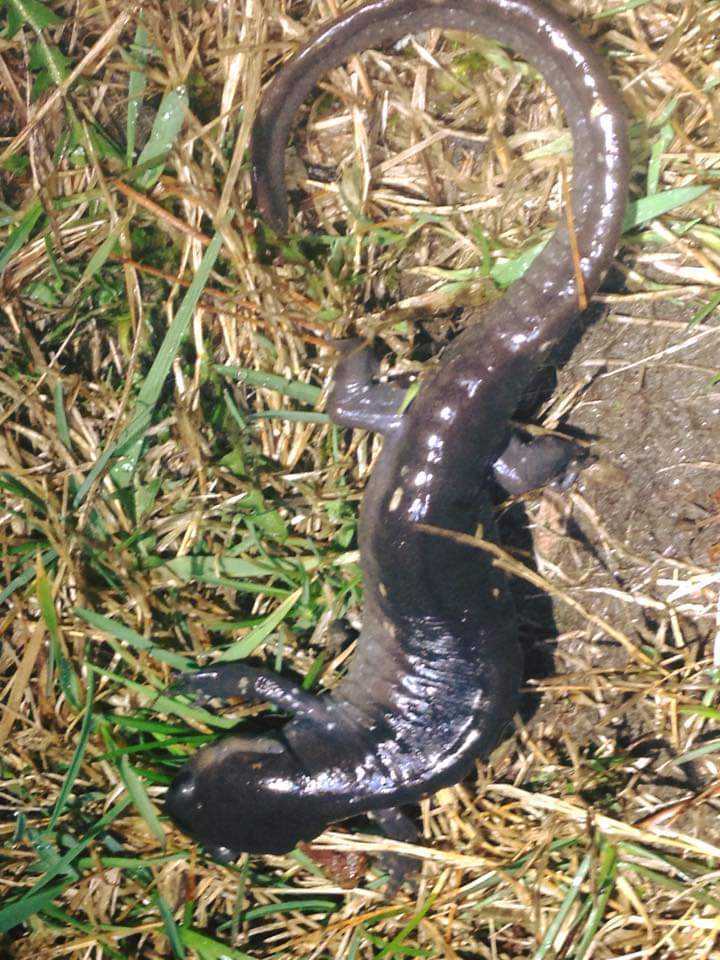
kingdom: Animalia
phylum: Chordata
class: Amphibia
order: Caudata
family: Ambystomatidae
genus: Ambystoma
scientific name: Ambystoma maculatum
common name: Spotted salamander
